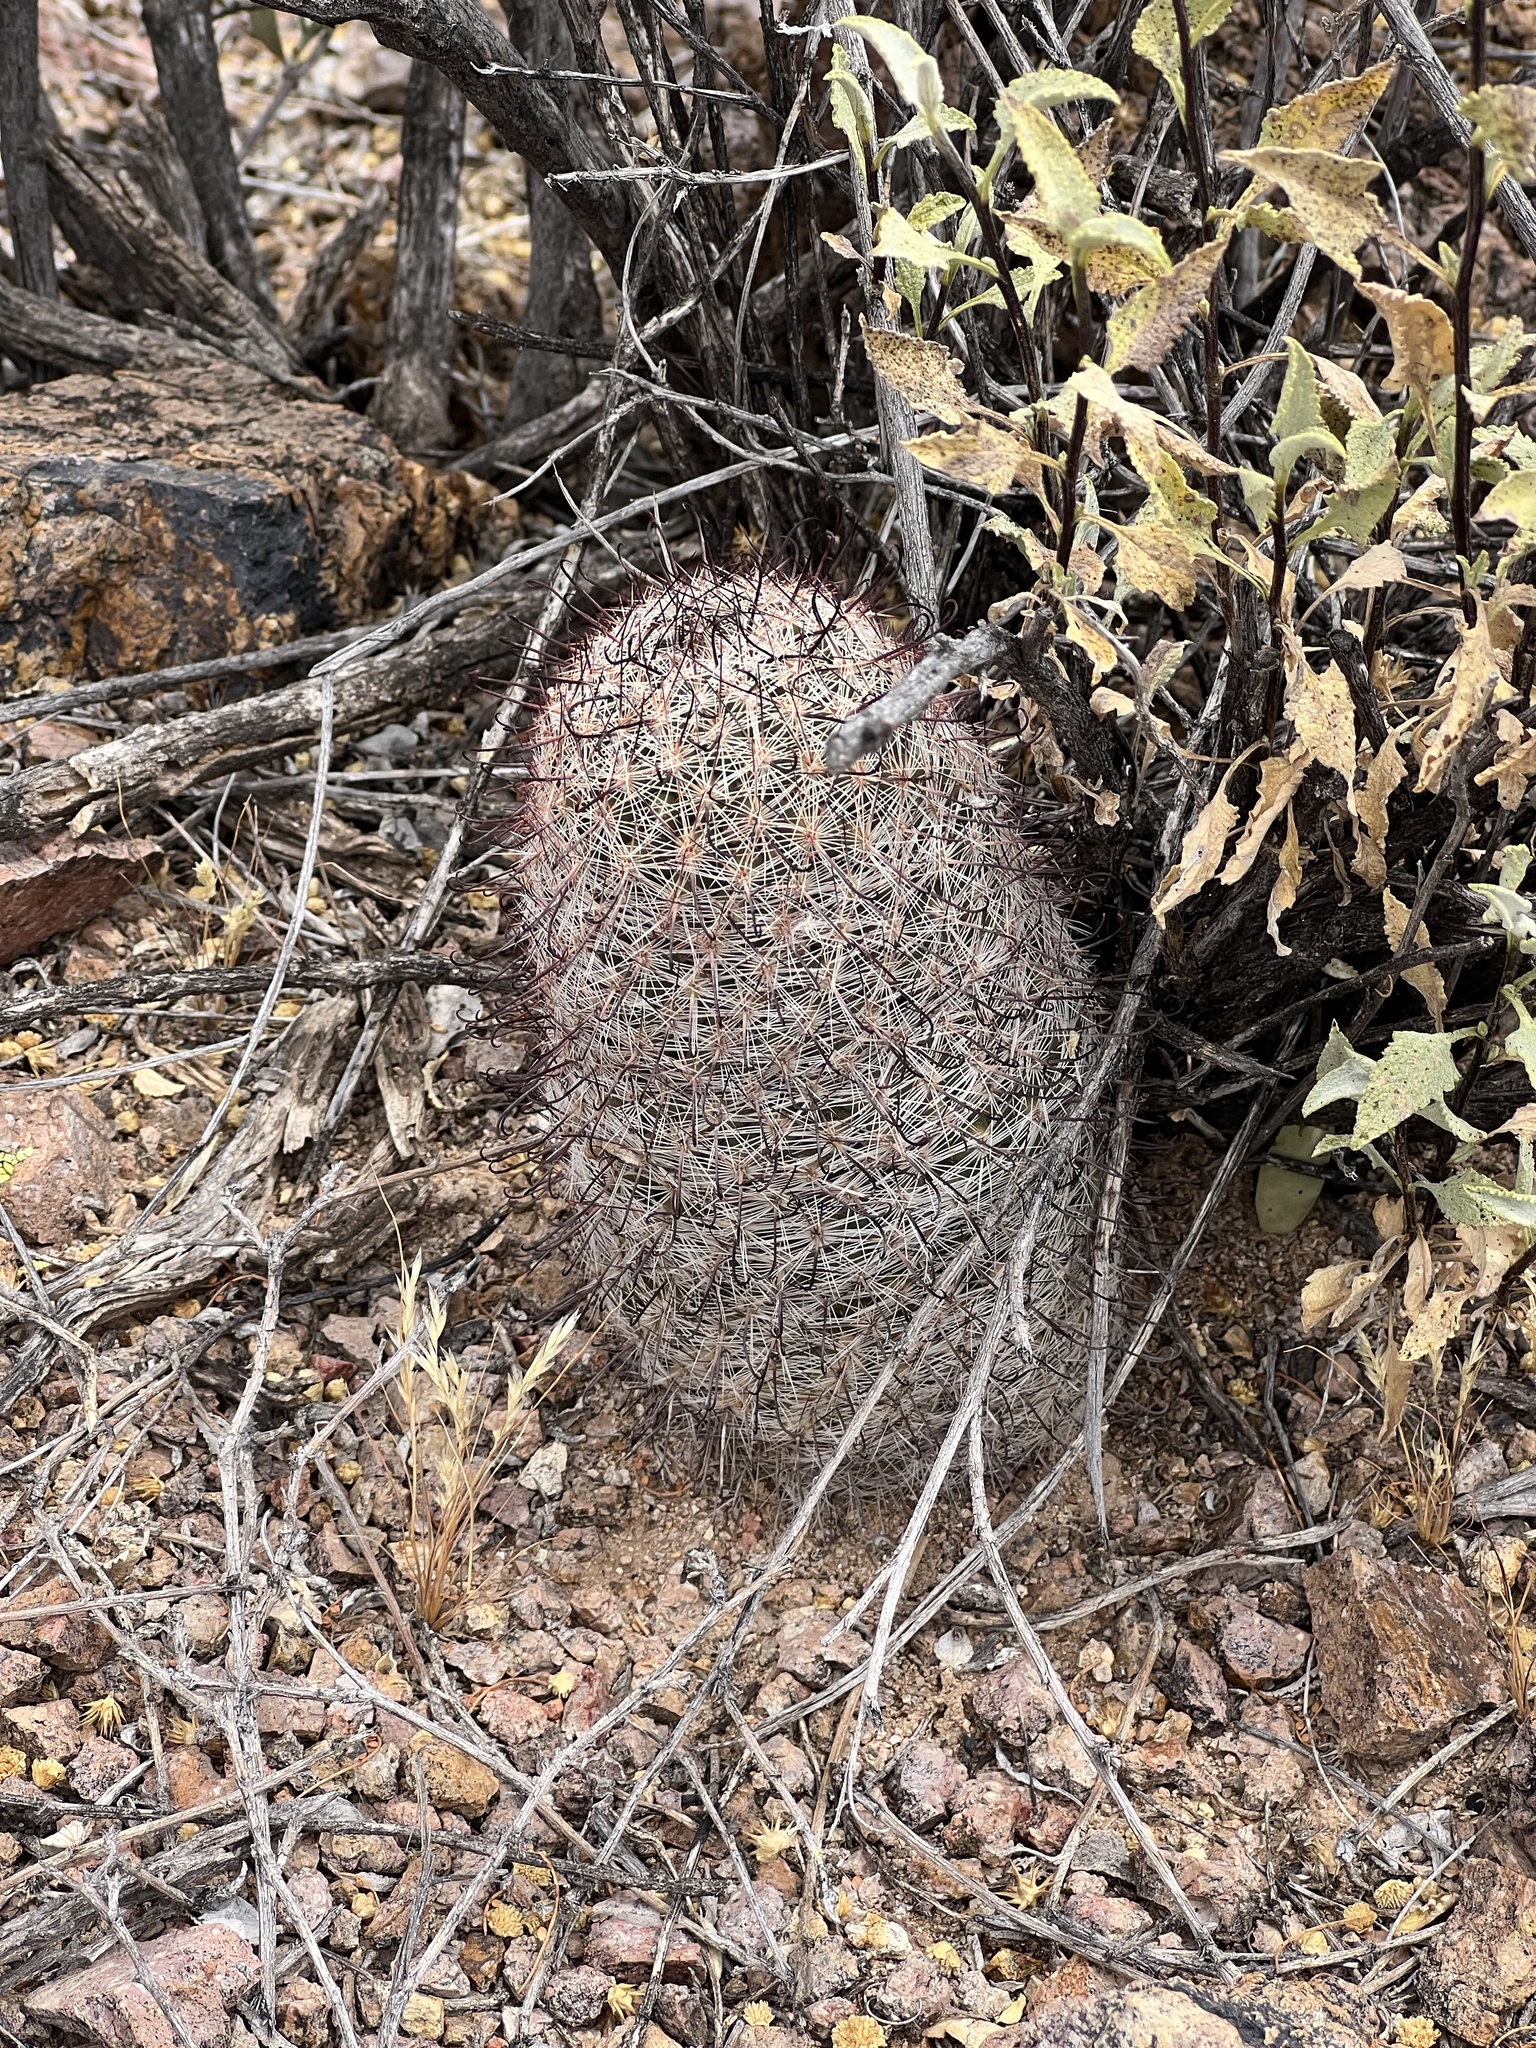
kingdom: Plantae
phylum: Tracheophyta
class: Magnoliopsida
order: Caryophyllales
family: Cactaceae
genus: Cochemiea
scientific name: Cochemiea grahamii
